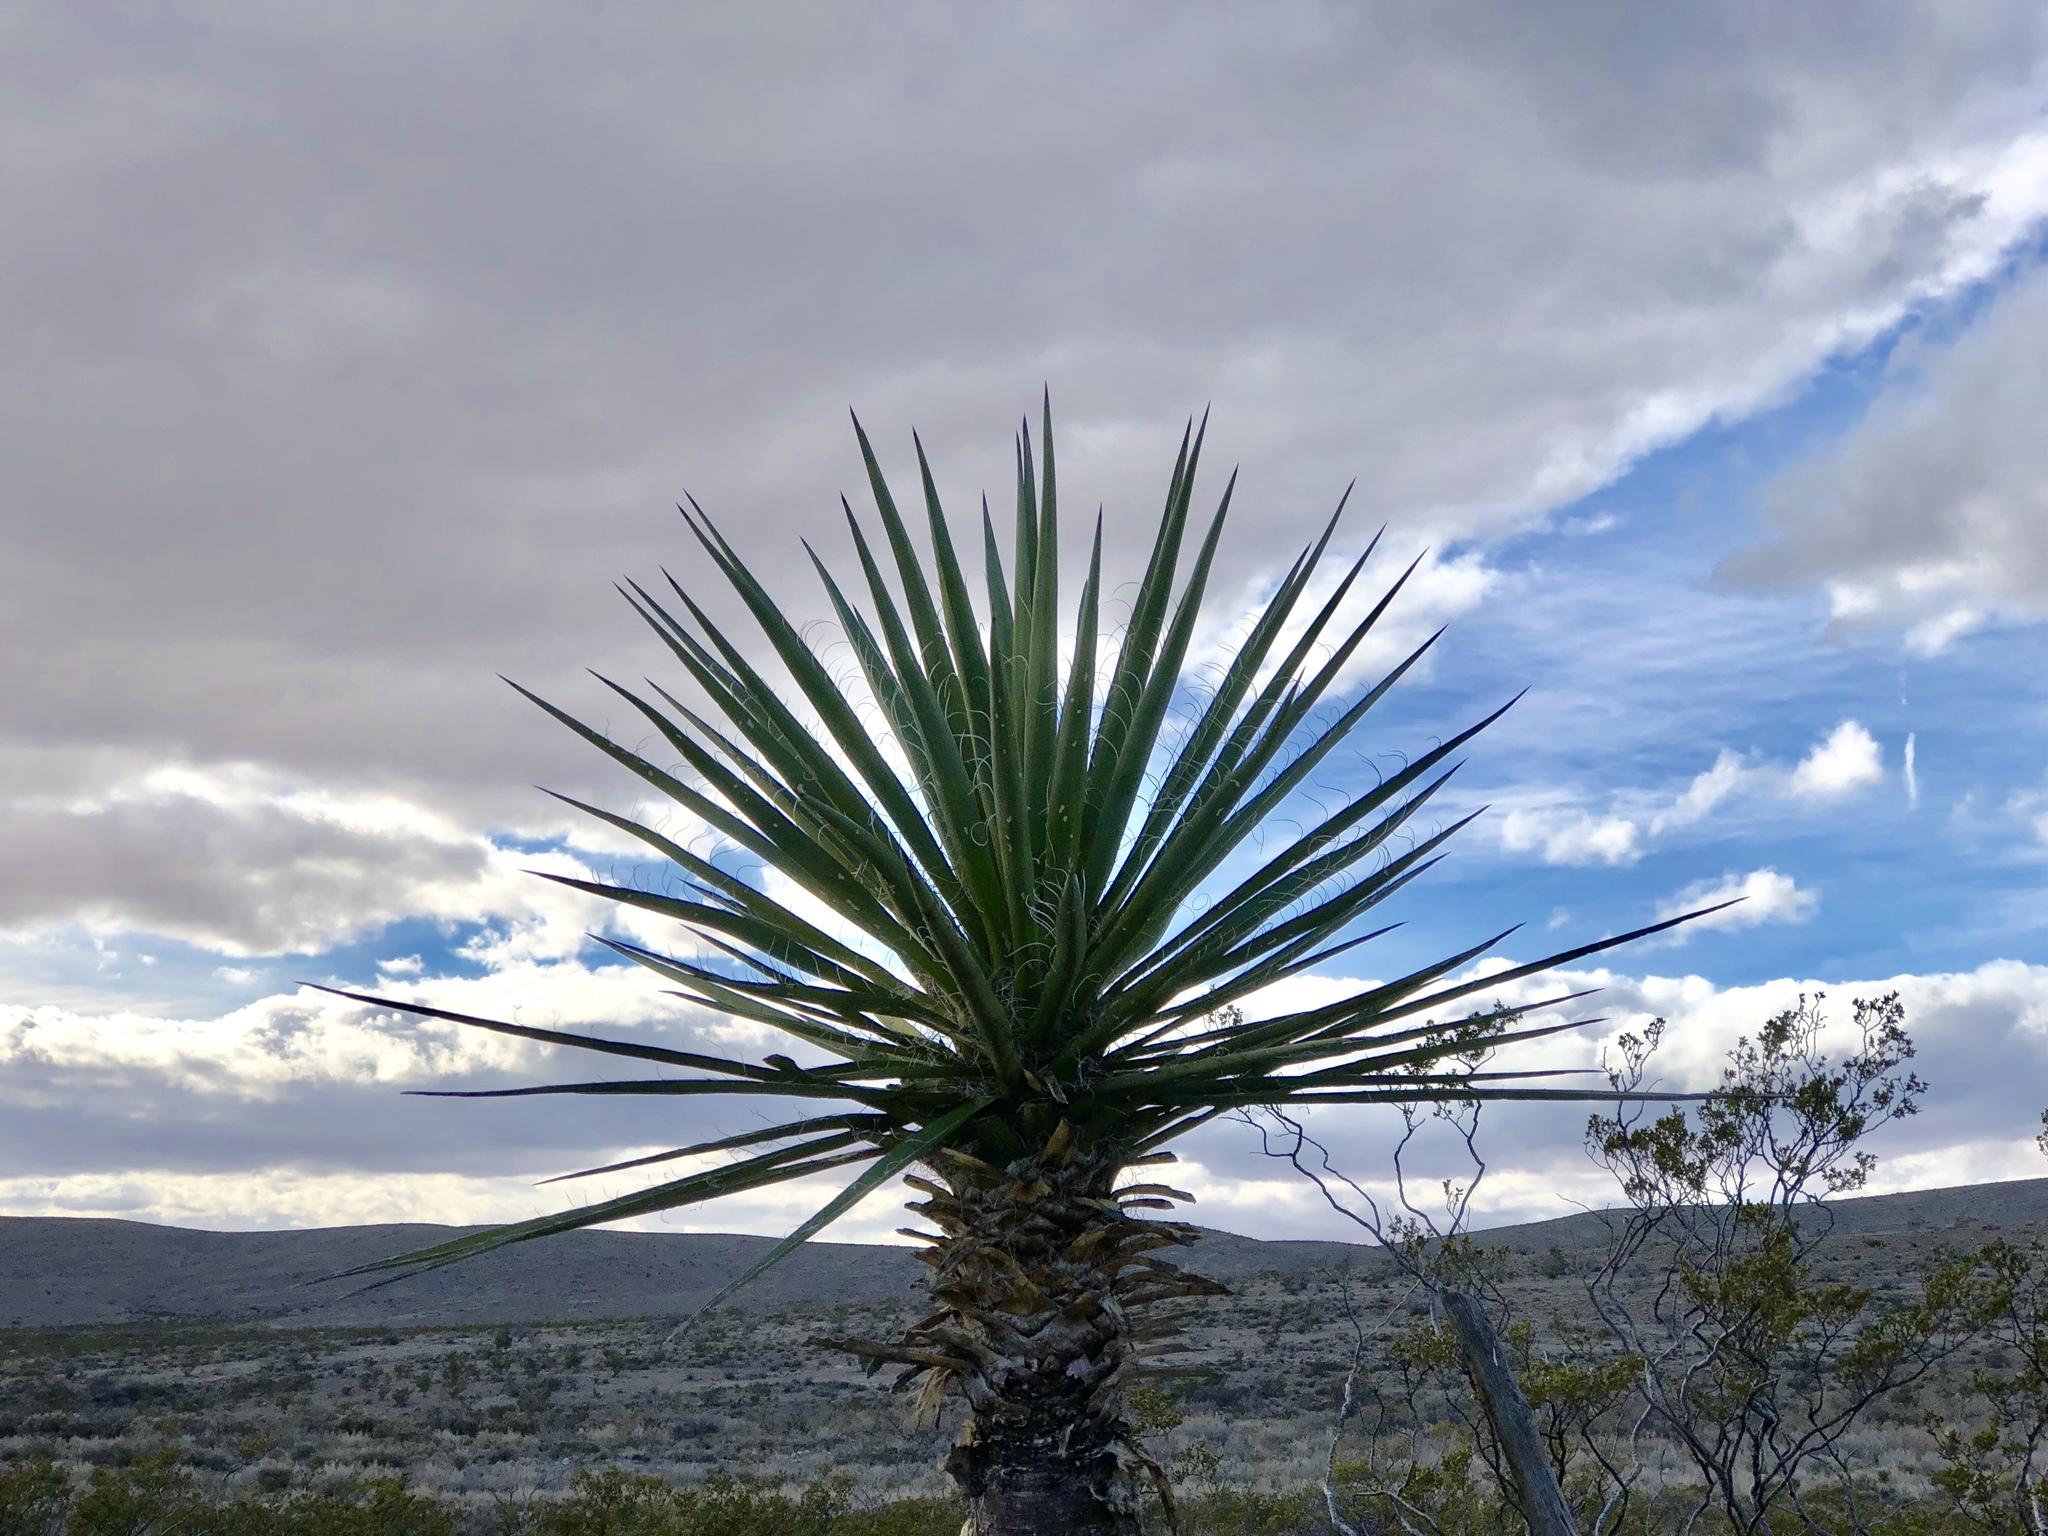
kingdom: Plantae
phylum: Tracheophyta
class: Liliopsida
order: Asparagales
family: Asparagaceae
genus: Yucca
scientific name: Yucca treculiana
